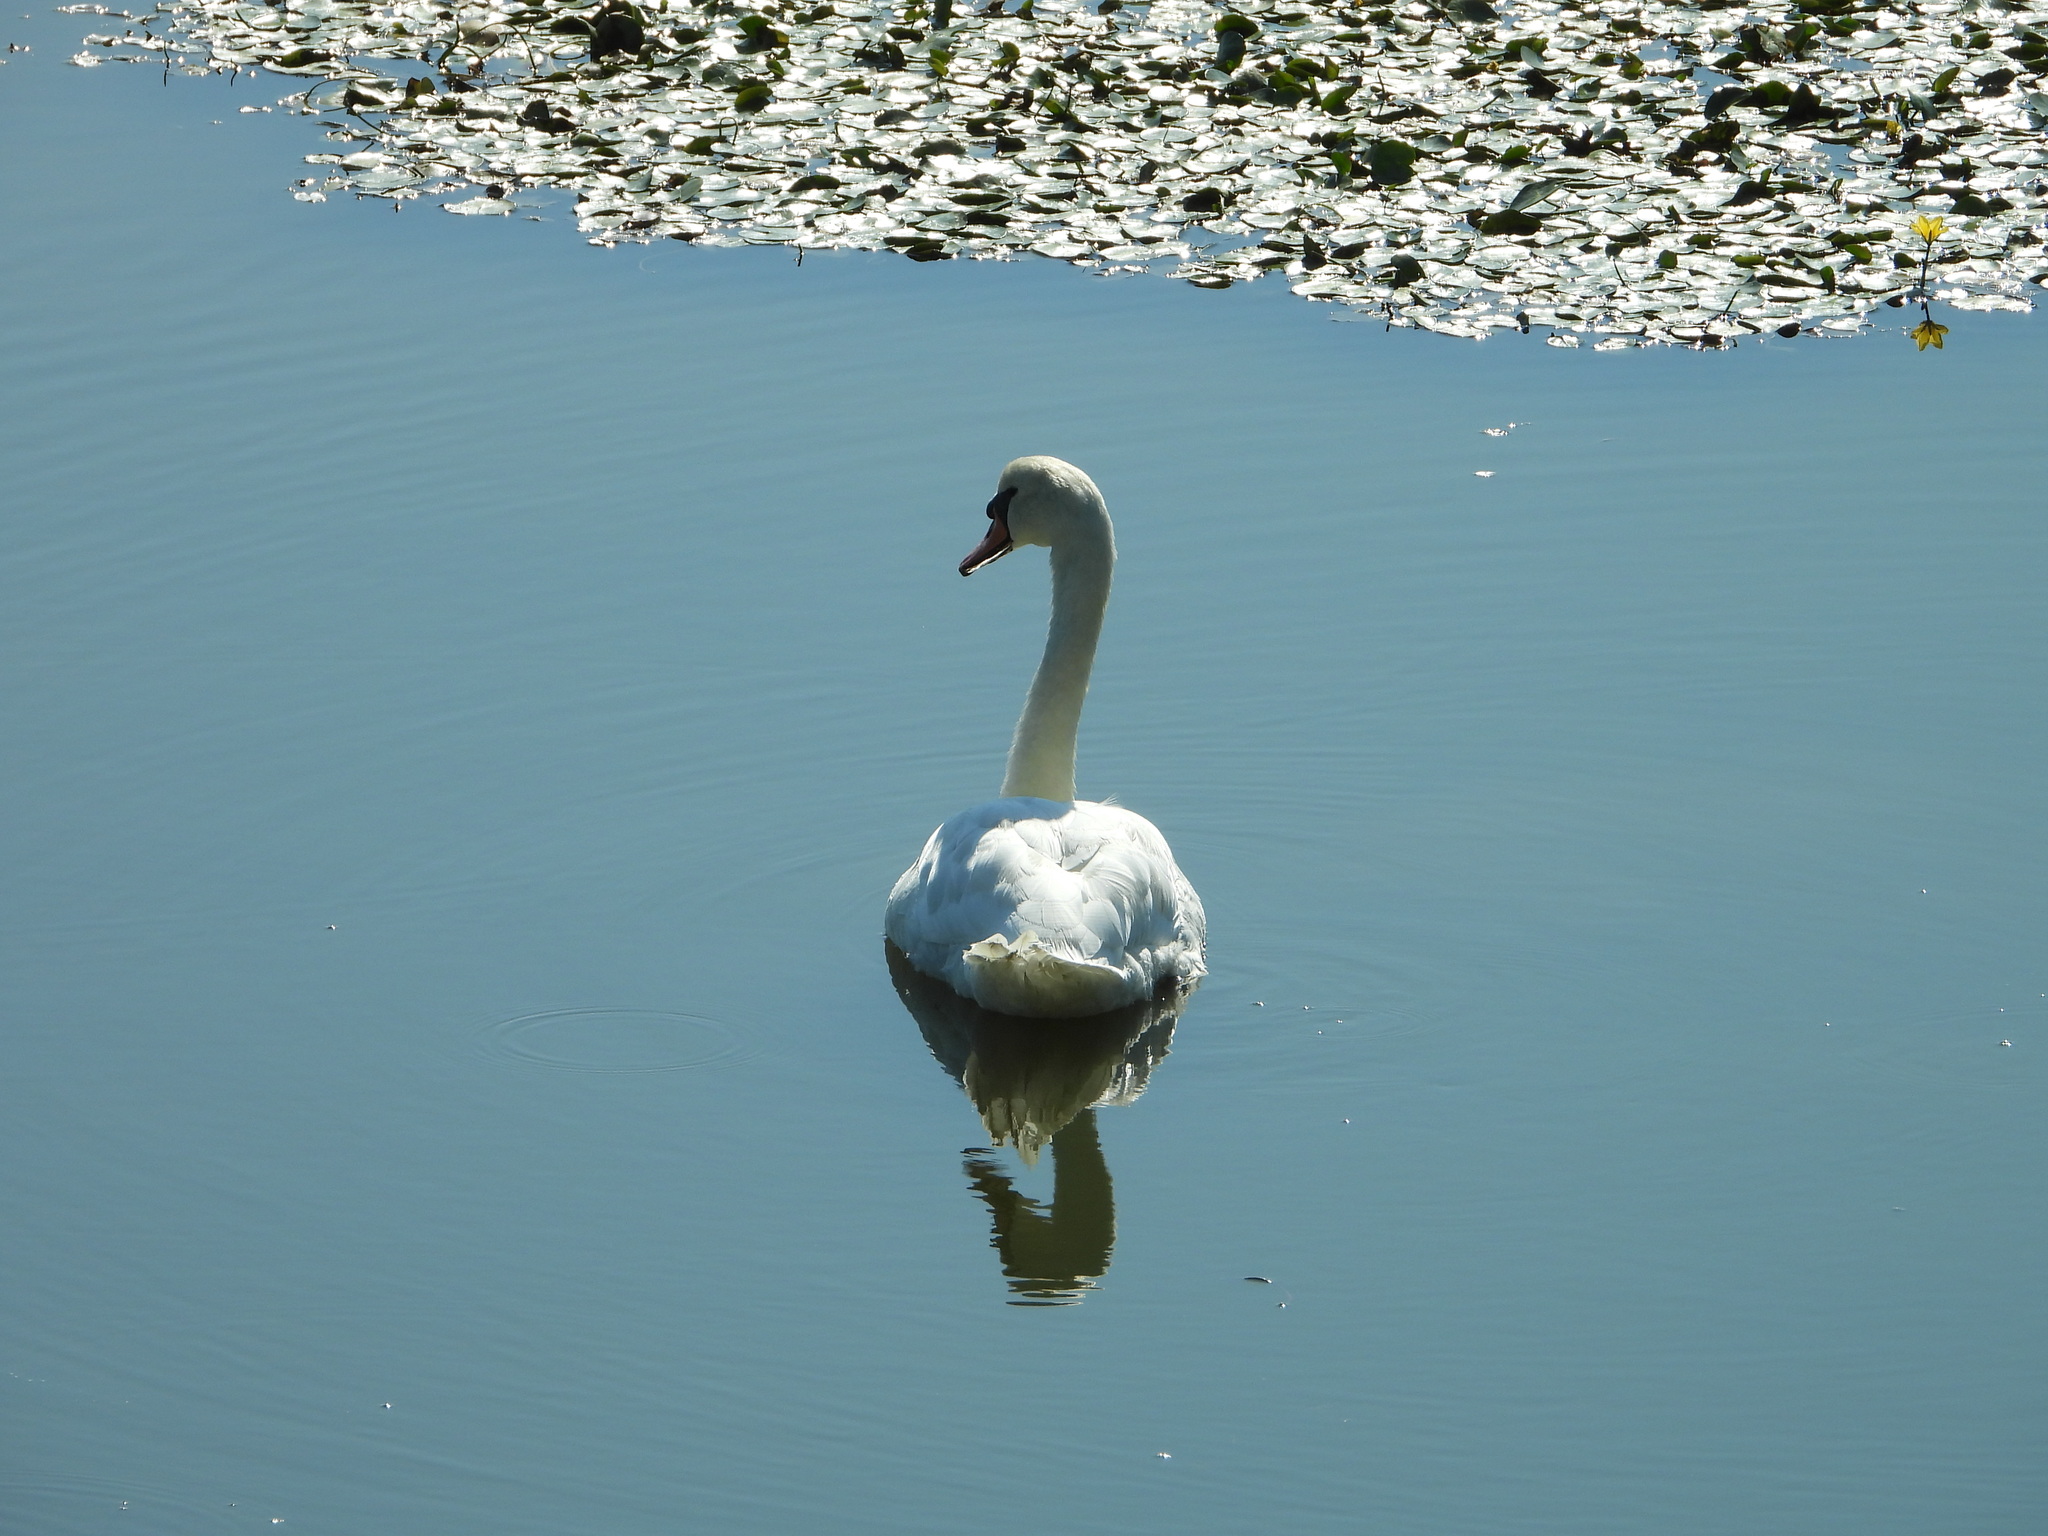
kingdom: Animalia
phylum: Chordata
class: Aves
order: Anseriformes
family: Anatidae
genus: Cygnus
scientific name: Cygnus olor
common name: Mute swan
